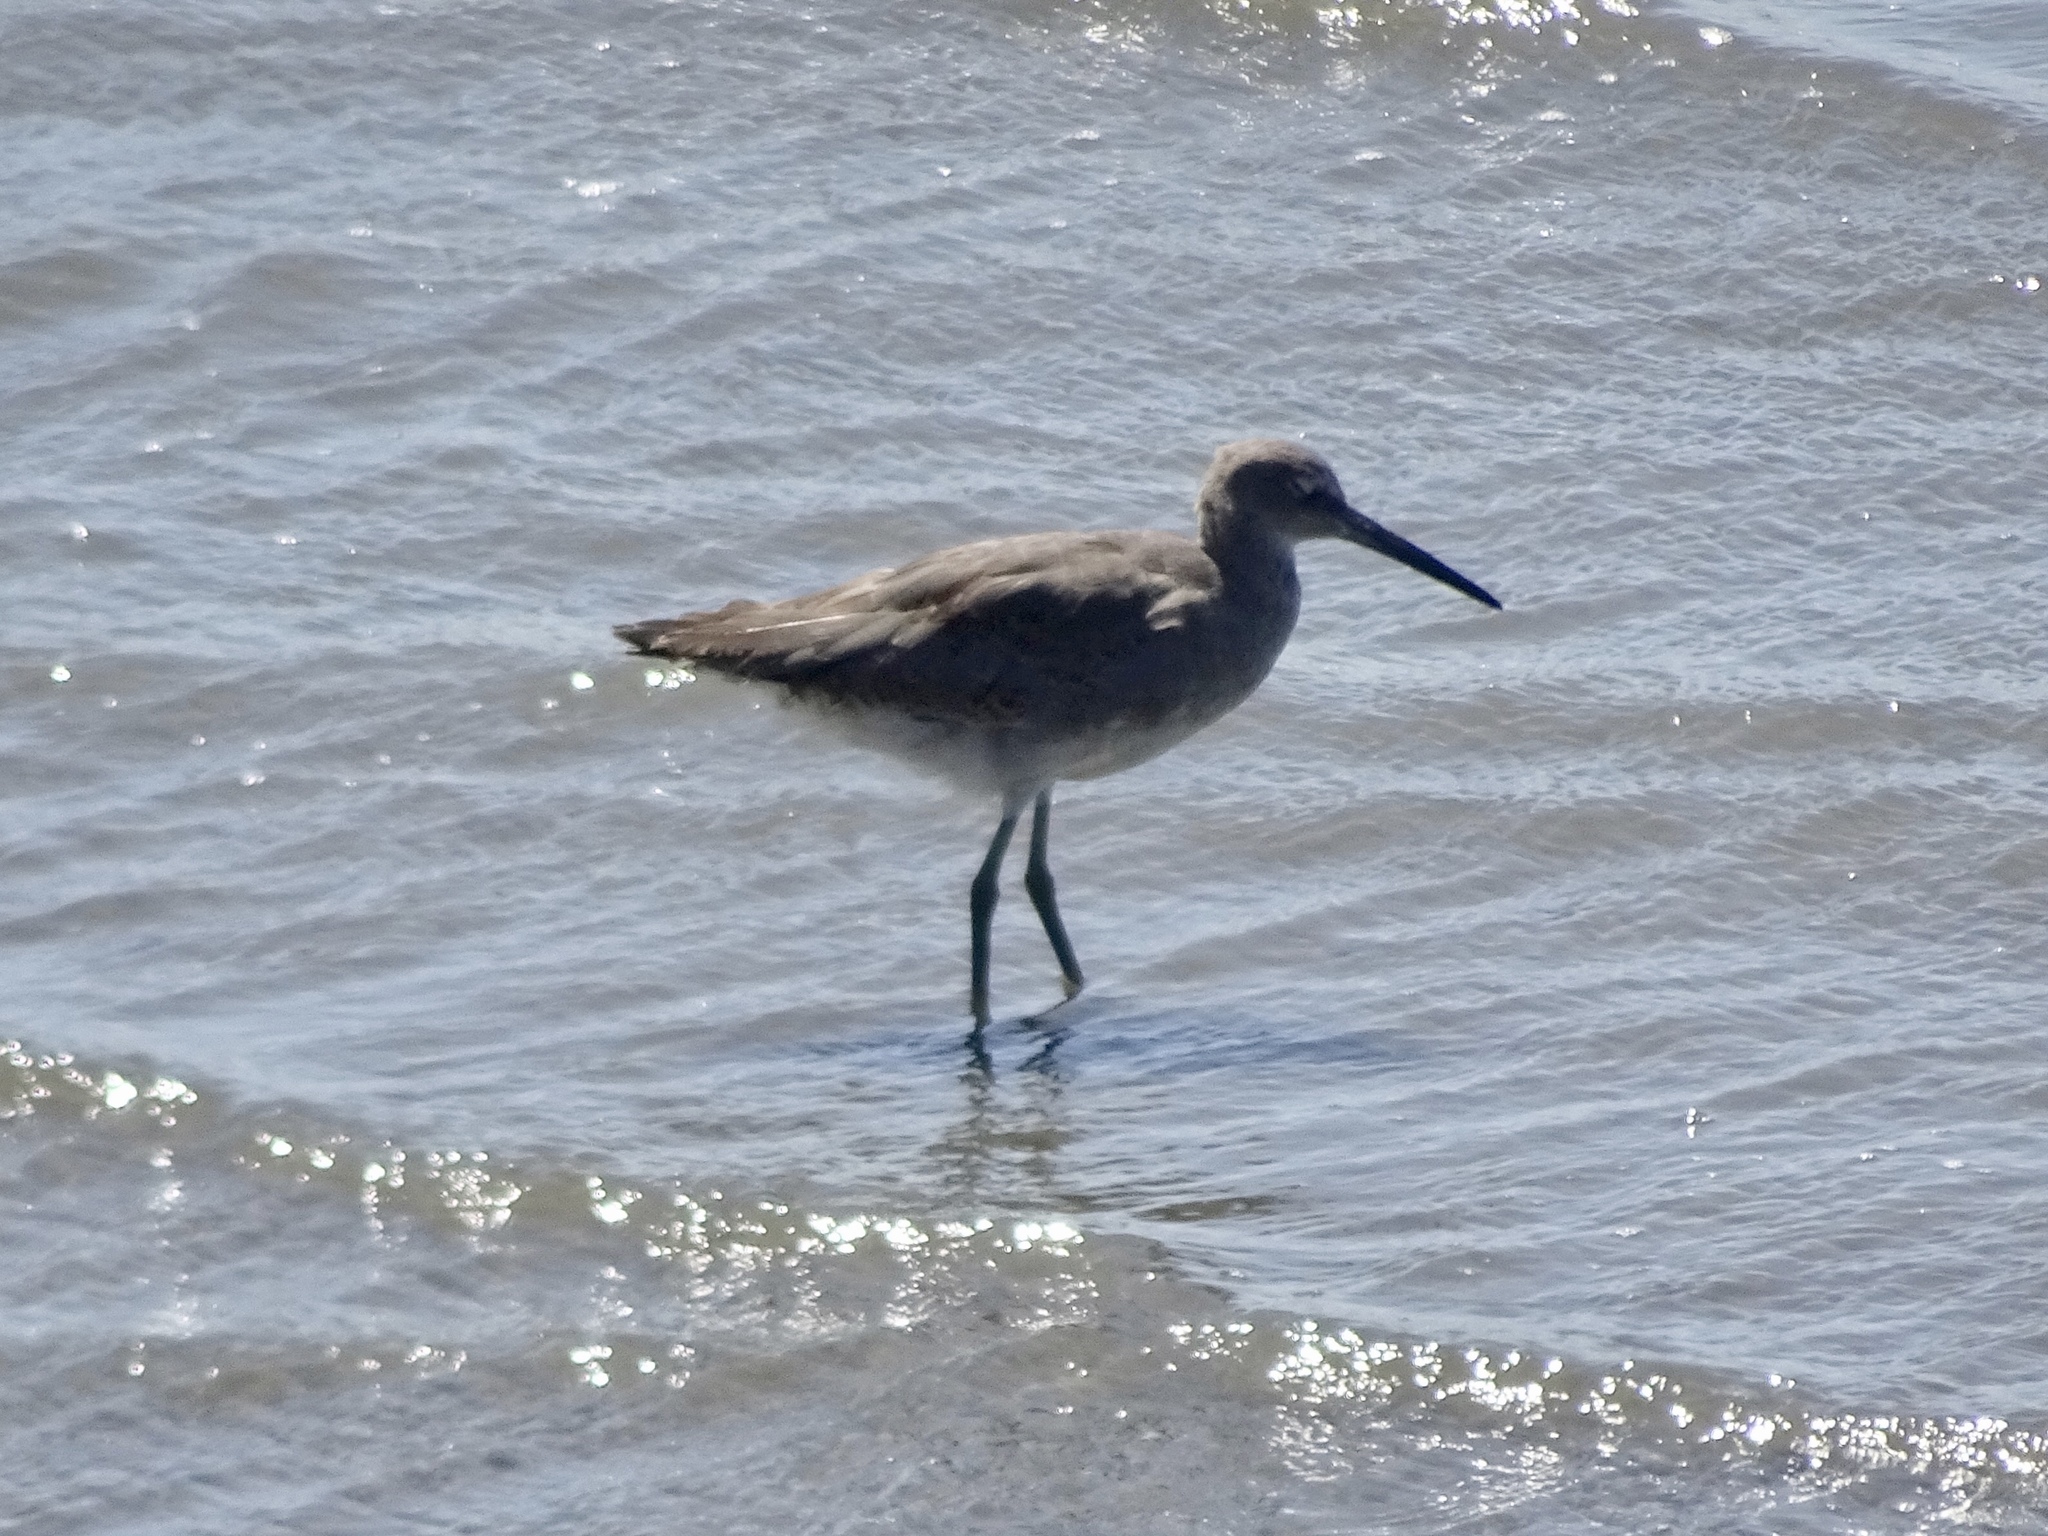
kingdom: Animalia
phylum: Chordata
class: Aves
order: Charadriiformes
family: Scolopacidae
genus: Tringa
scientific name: Tringa semipalmata
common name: Willet
